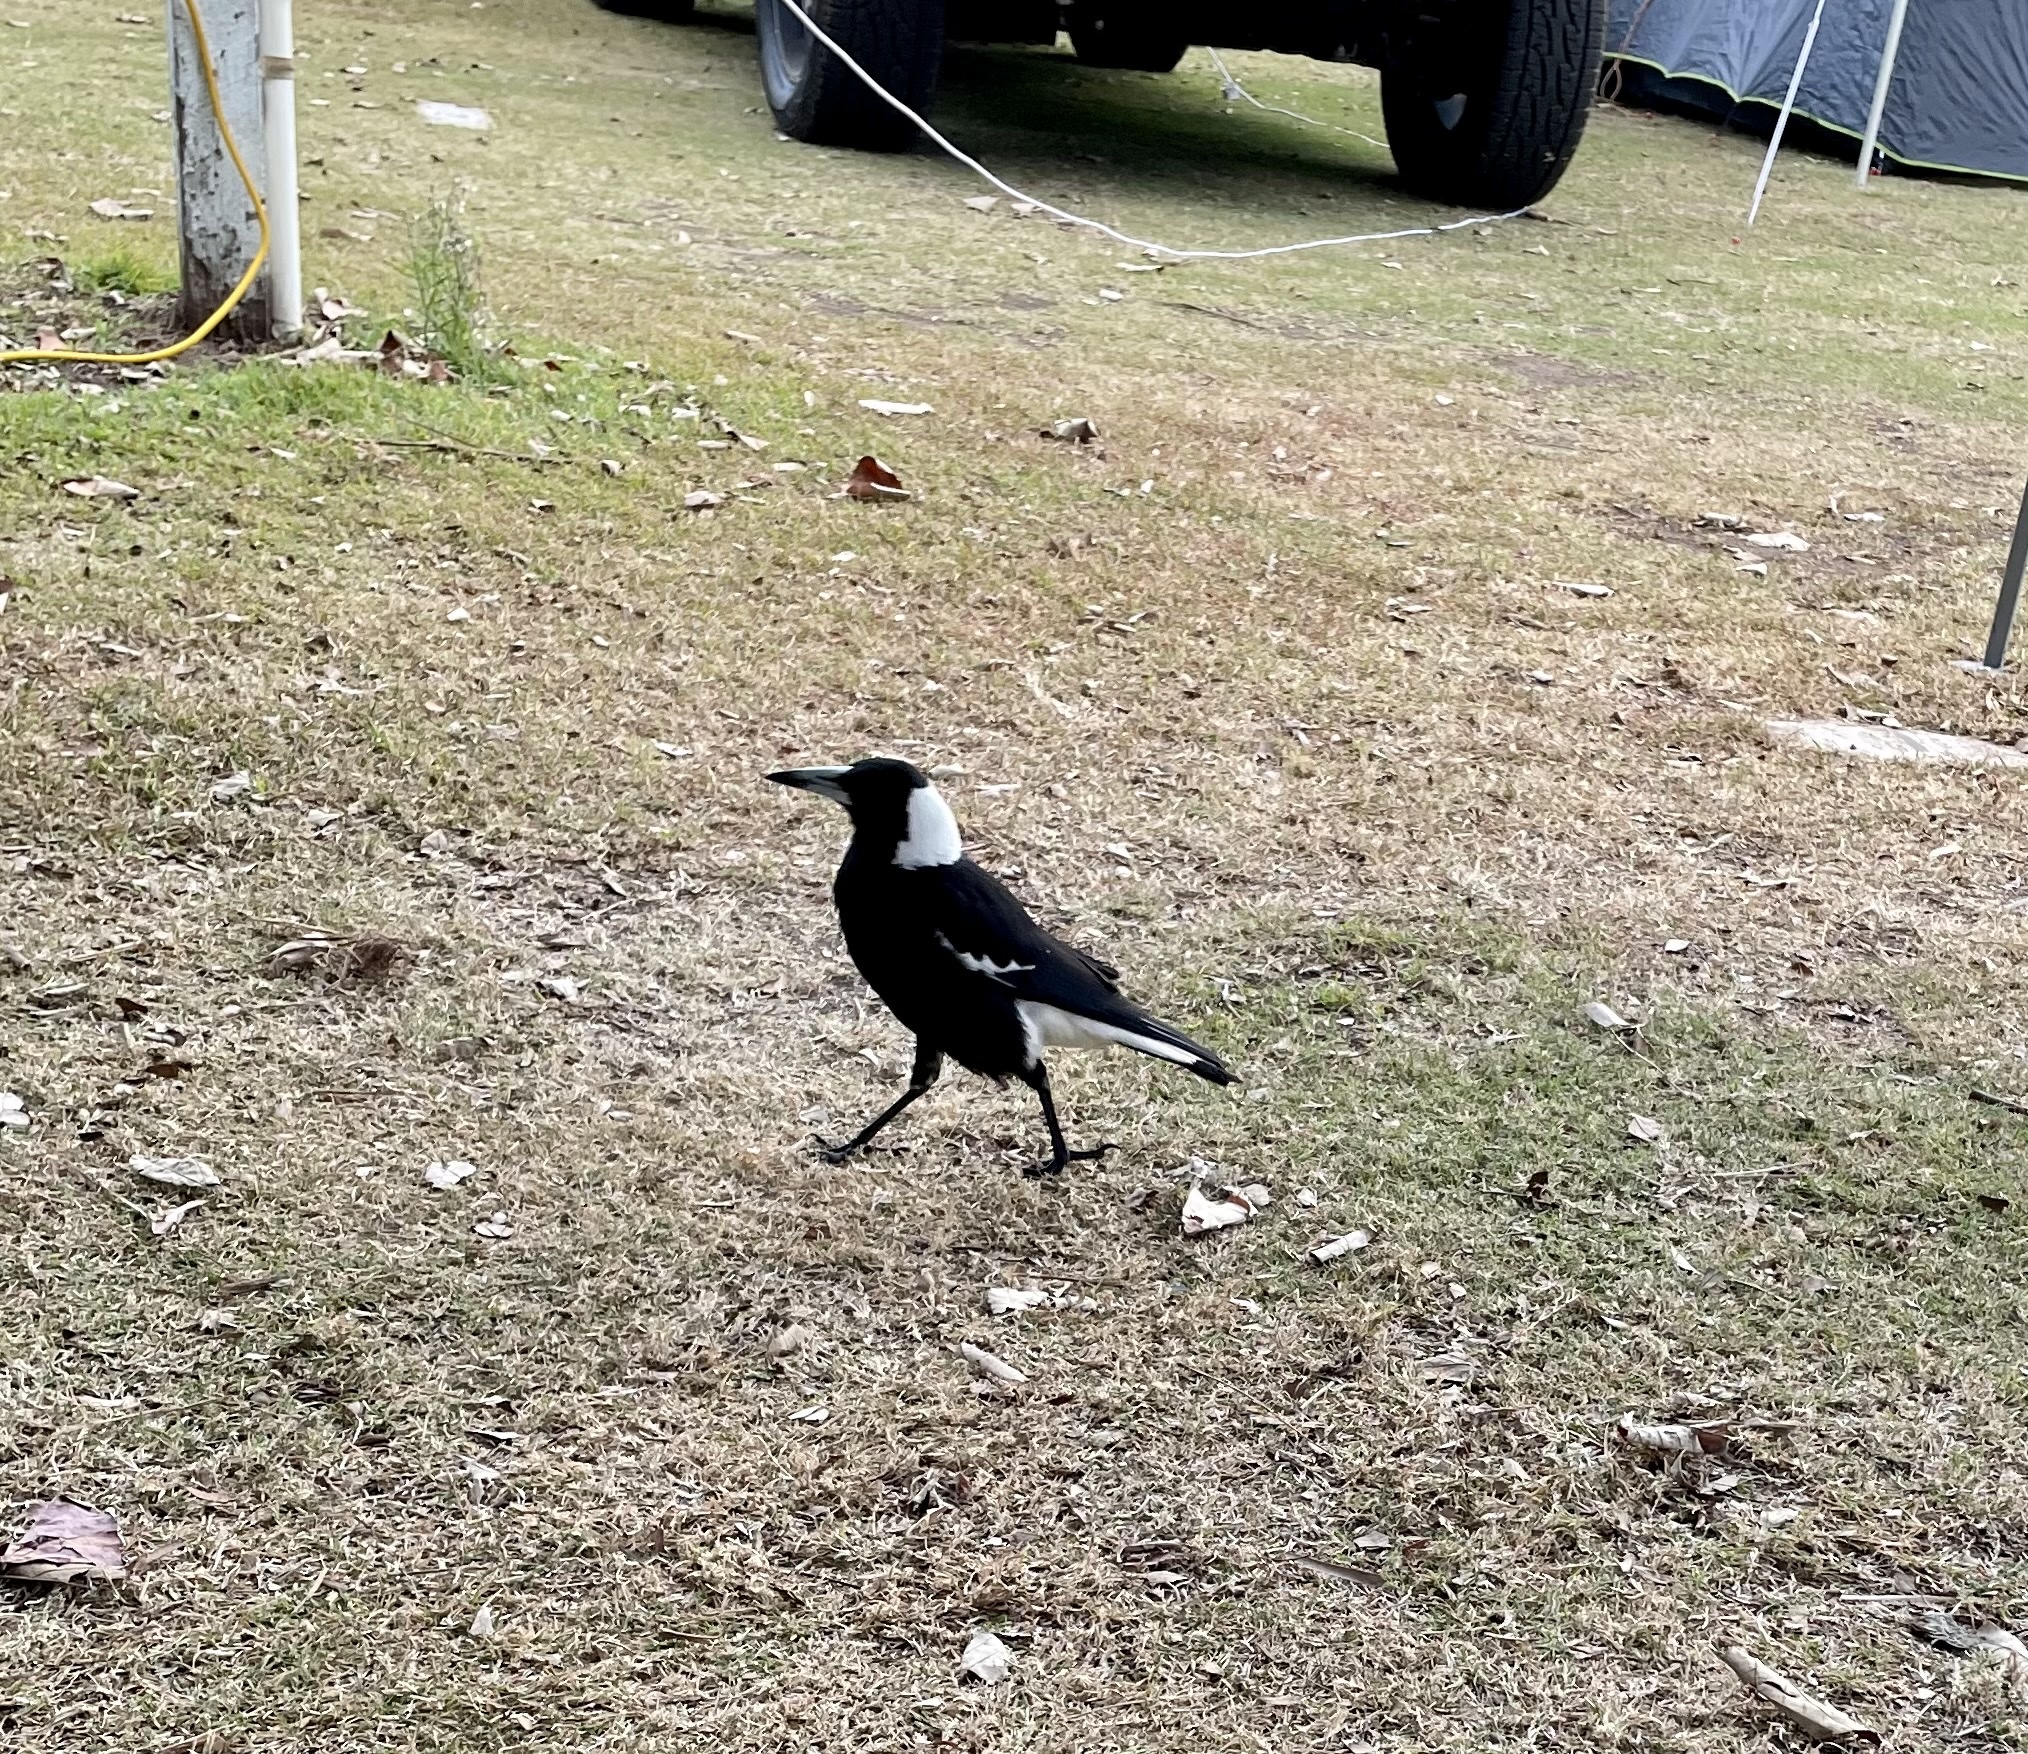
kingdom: Animalia
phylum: Chordata
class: Aves
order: Passeriformes
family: Cracticidae
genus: Gymnorhina
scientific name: Gymnorhina tibicen
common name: Australian magpie
